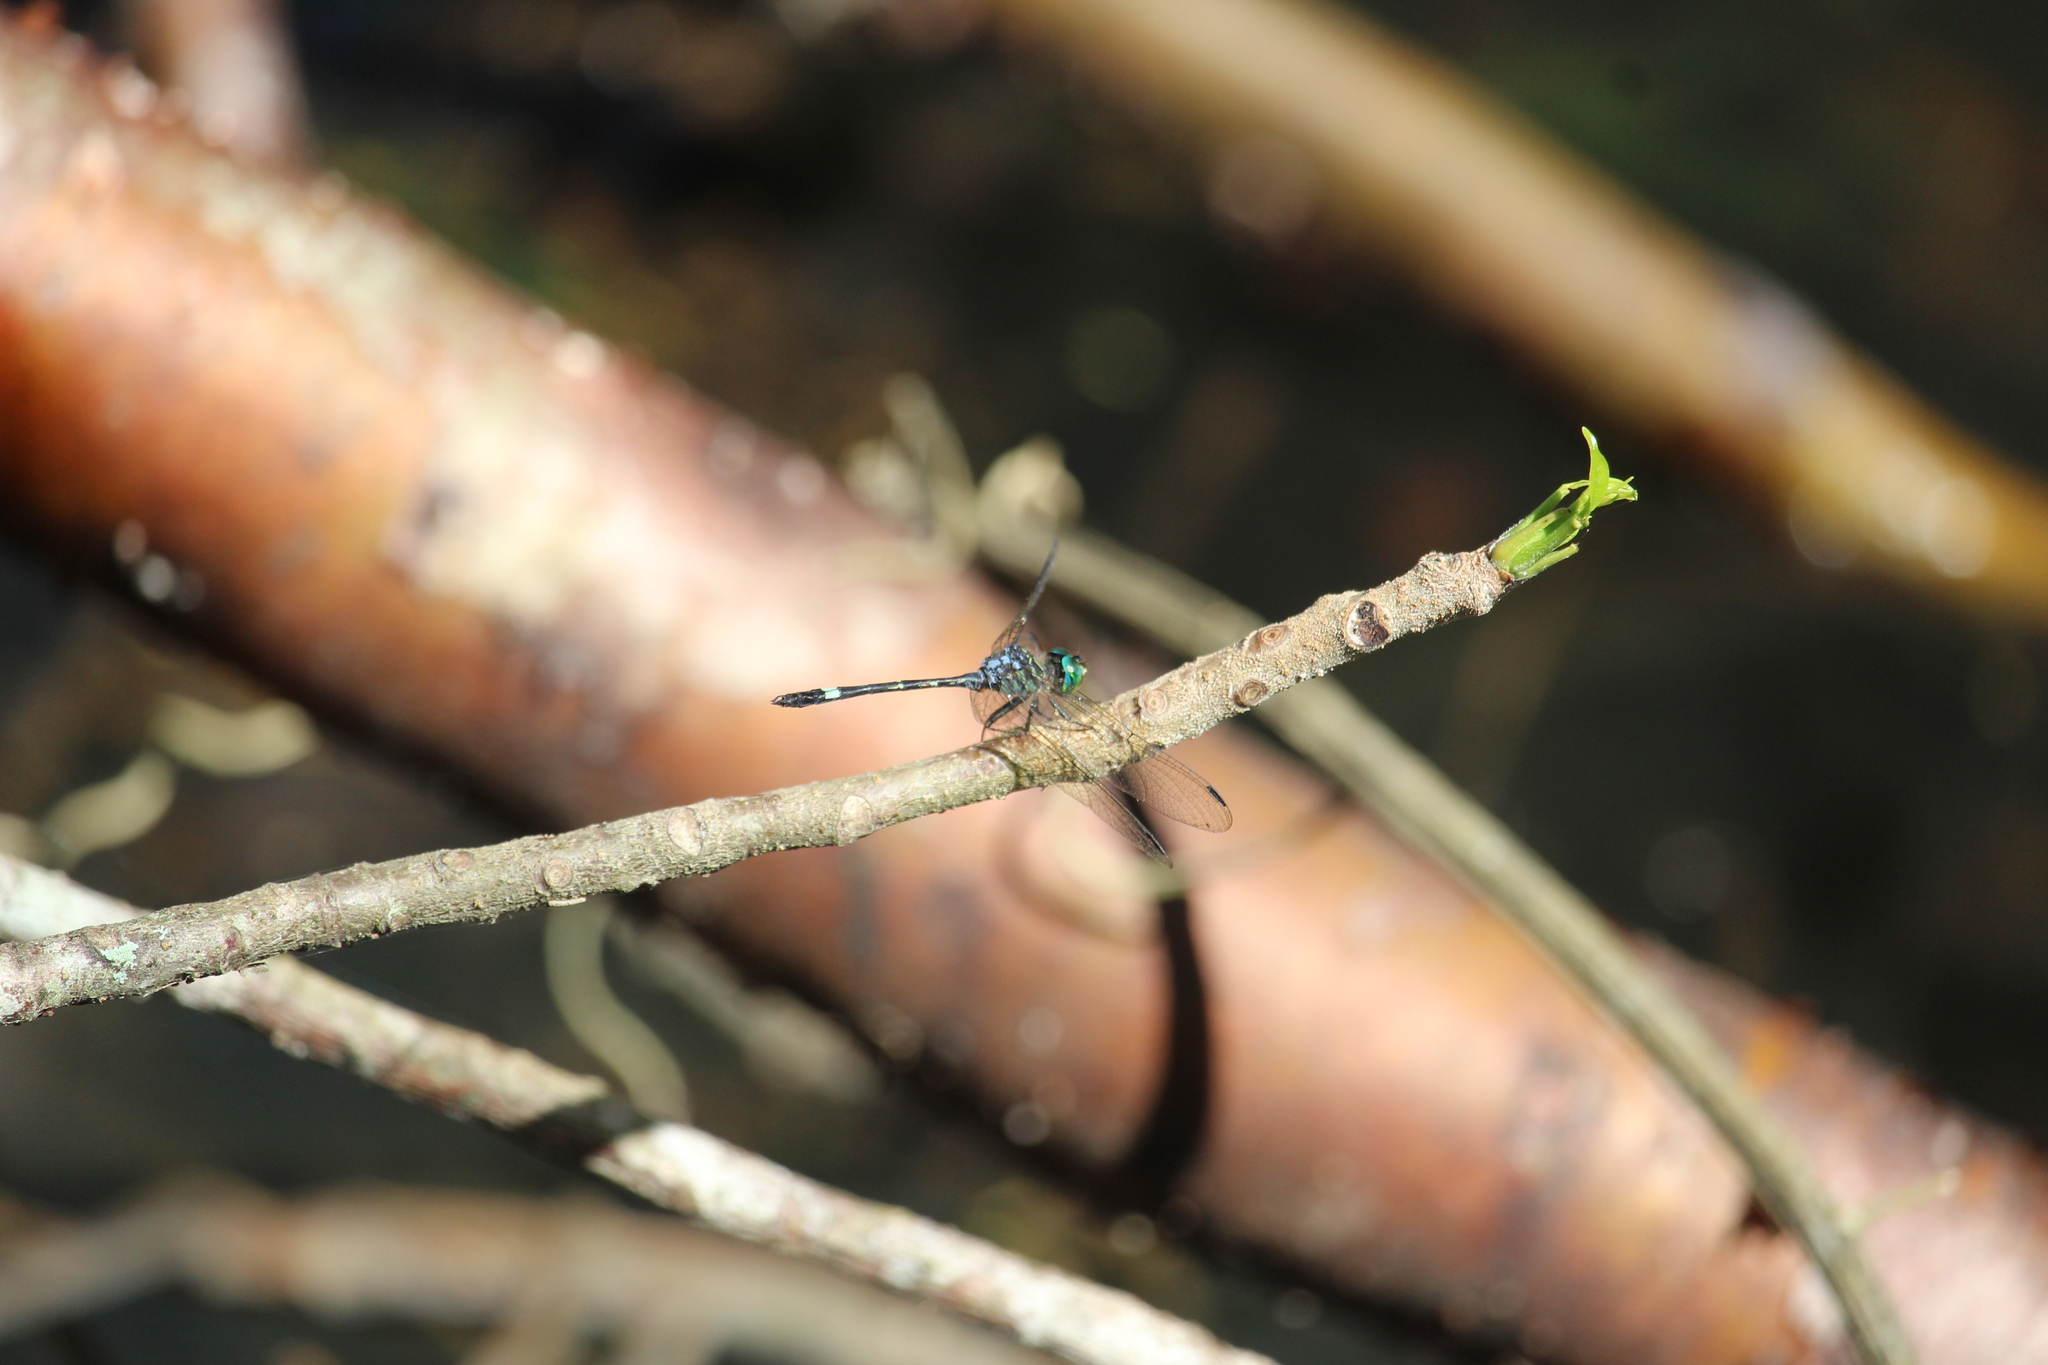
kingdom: Animalia
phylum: Arthropoda
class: Insecta
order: Odonata
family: Libellulidae
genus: Micrathyria
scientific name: Micrathyria didyma
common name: Three-striped dasher
